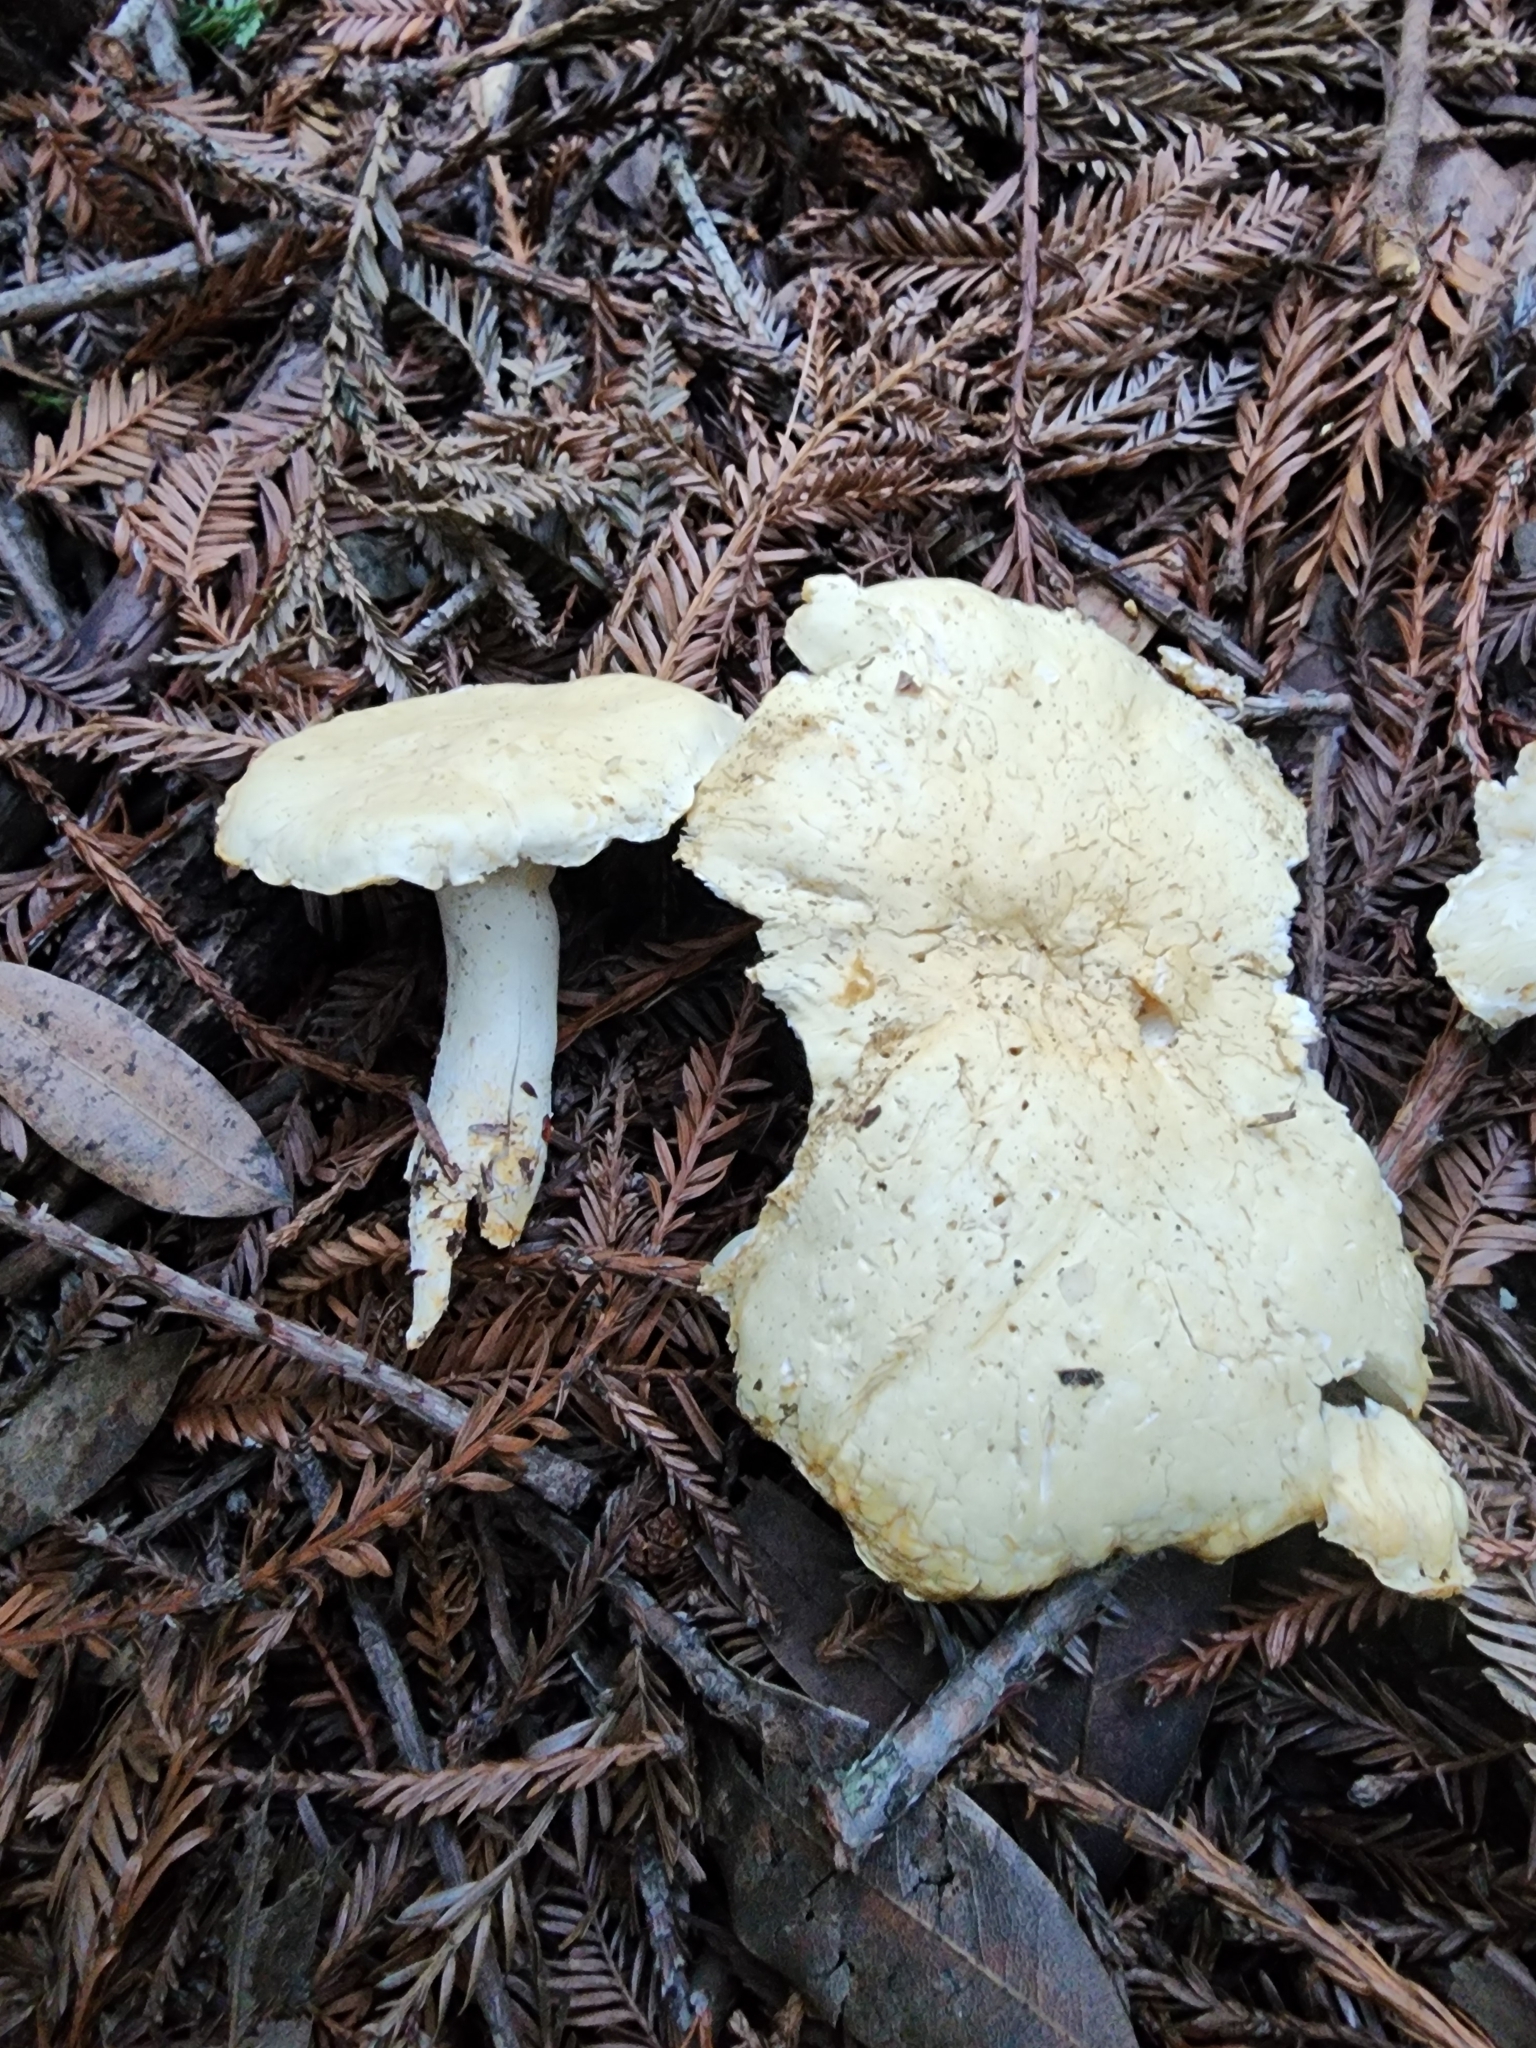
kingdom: Fungi
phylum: Basidiomycota
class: Agaricomycetes
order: Agaricales
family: Tricholomataceae
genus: Leucopaxillus
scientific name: Leucopaxillus albissimus
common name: Large white leucopax
